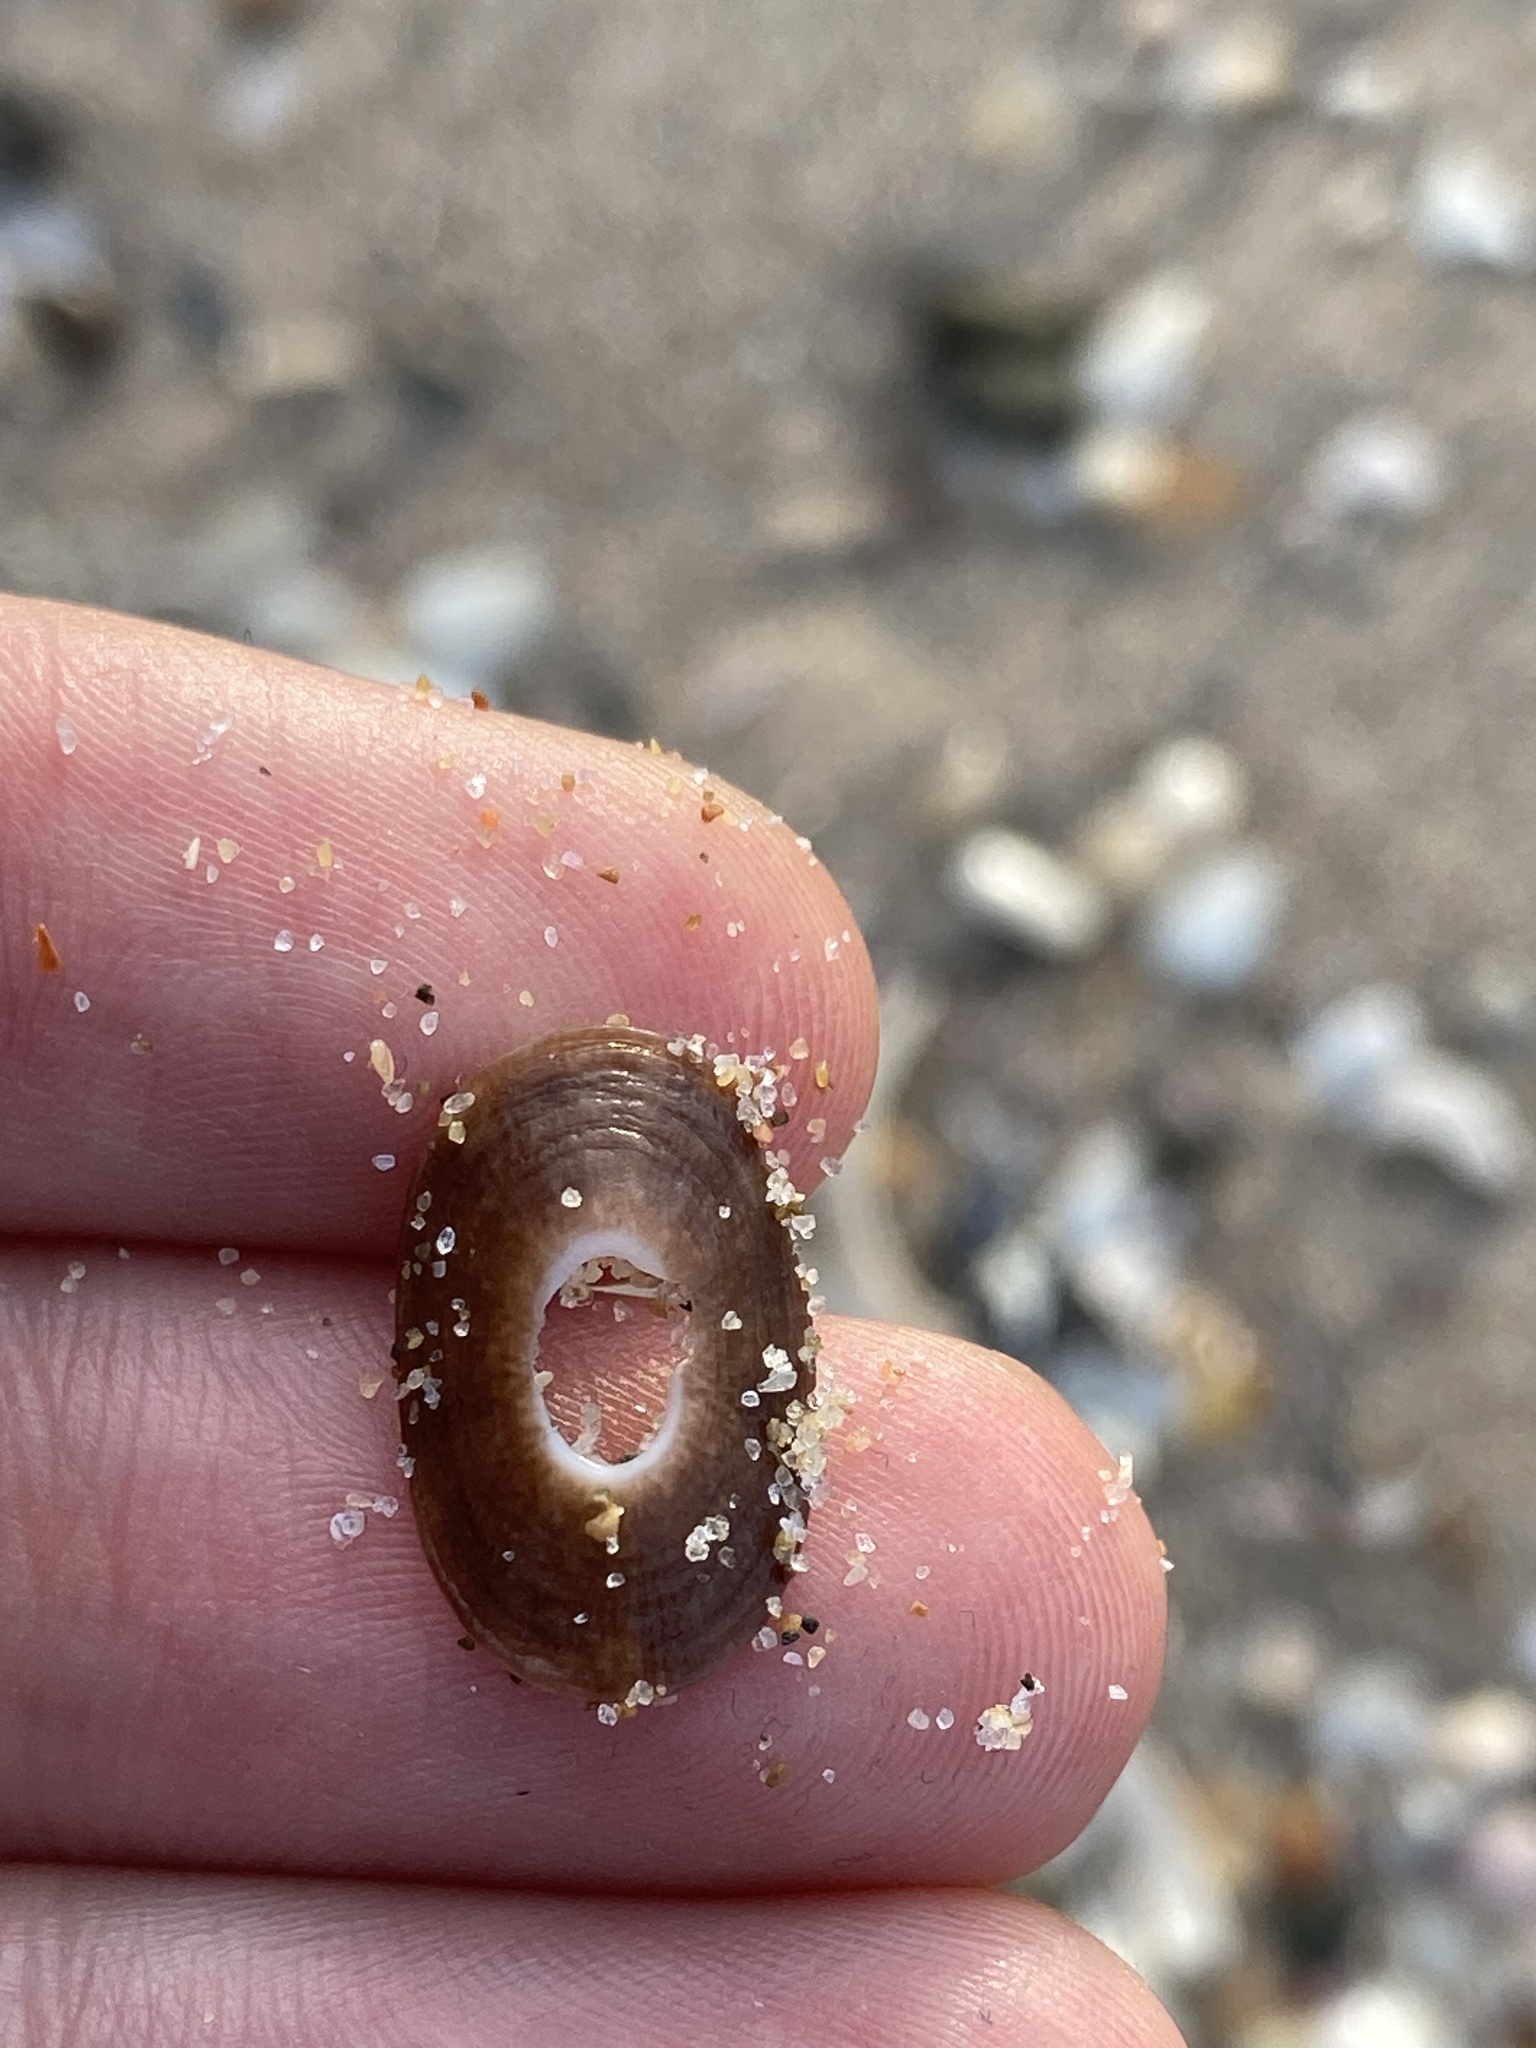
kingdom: Animalia
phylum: Mollusca
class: Gastropoda
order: Lepetellida
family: Fissurellidae
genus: Amblychilepas
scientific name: Amblychilepas nigrita
